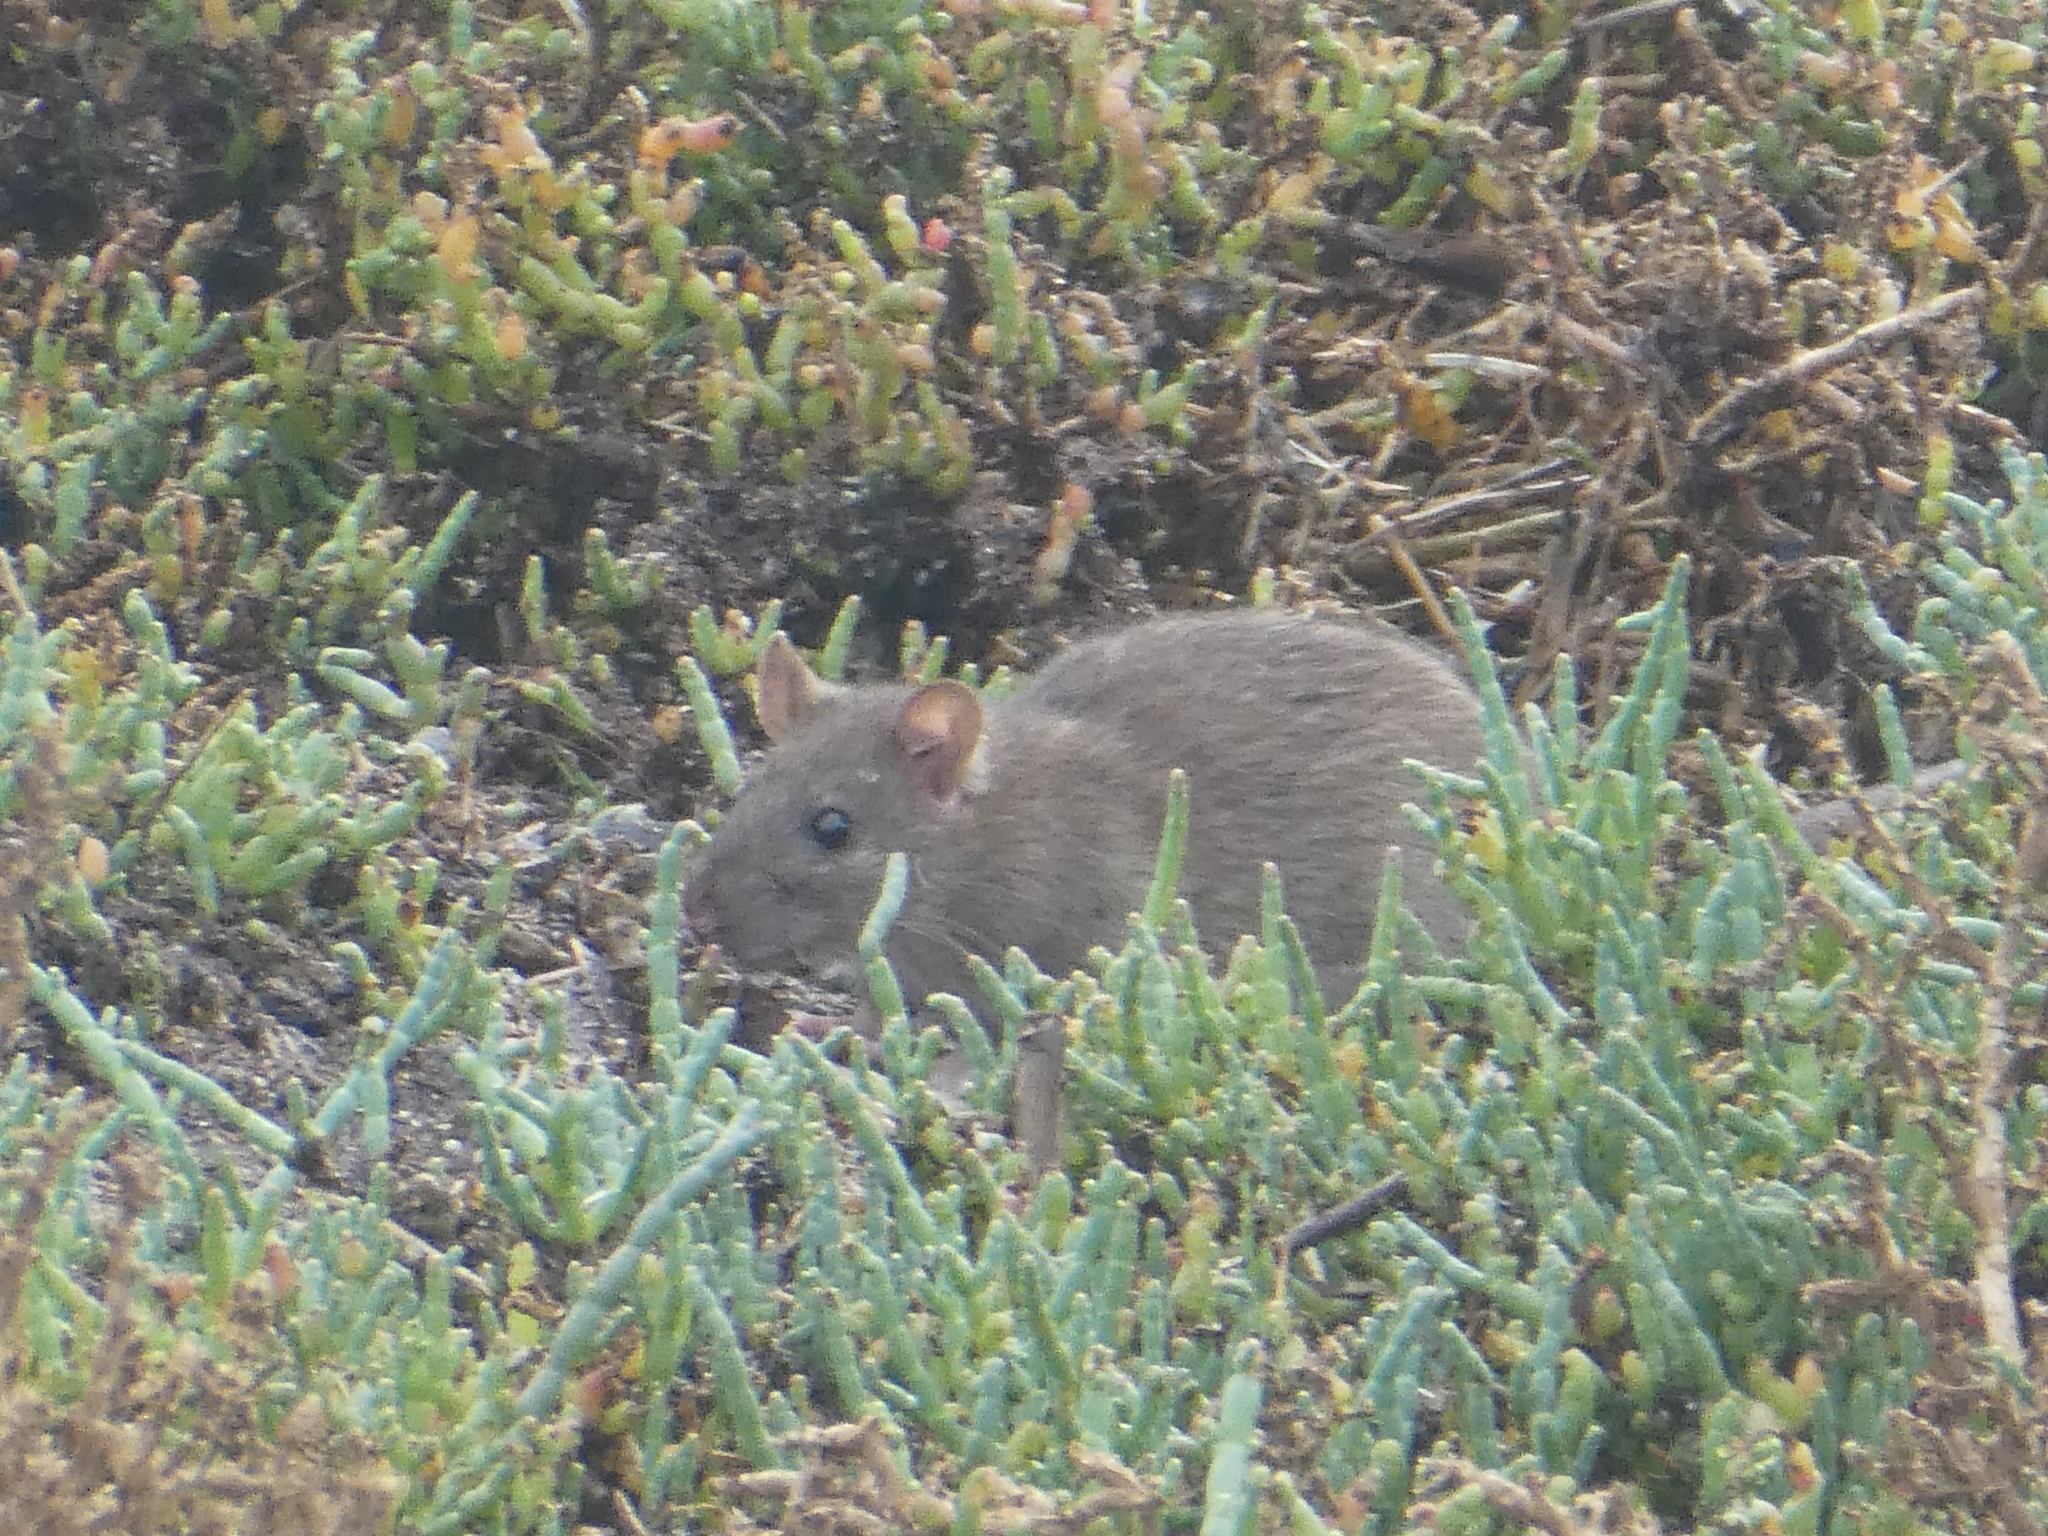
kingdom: Animalia
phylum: Chordata
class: Mammalia
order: Rodentia
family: Muridae
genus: Rattus
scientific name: Rattus norvegicus
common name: Brown rat
